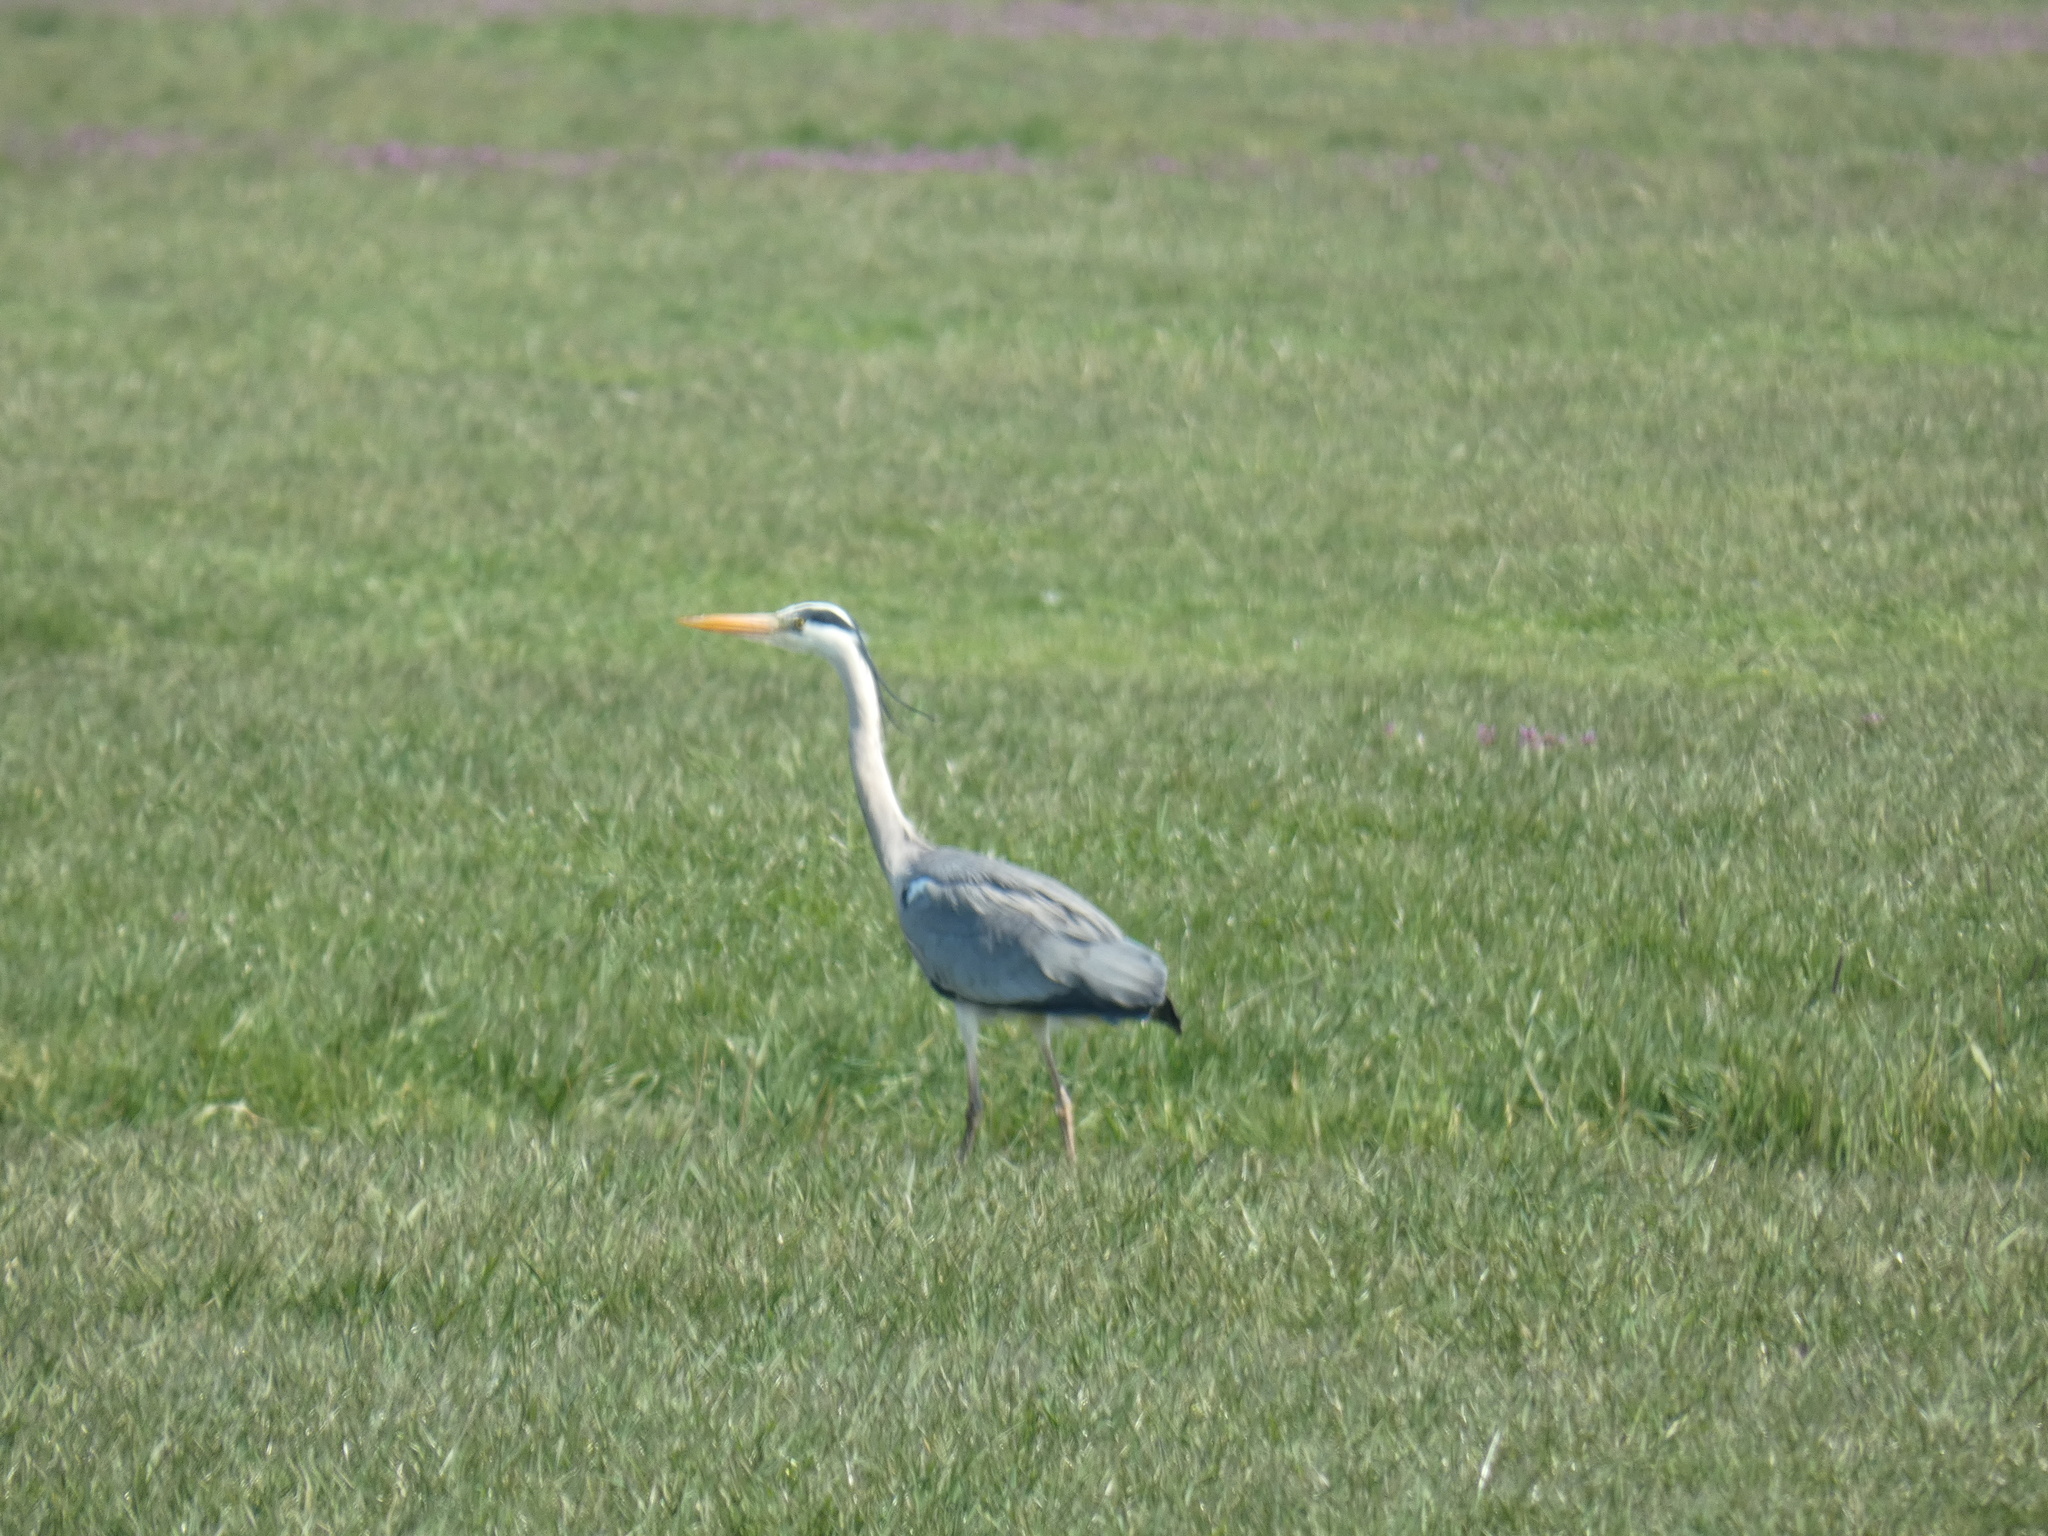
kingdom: Animalia
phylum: Chordata
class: Aves
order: Pelecaniformes
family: Ardeidae
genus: Ardea
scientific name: Ardea cinerea
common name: Grey heron
